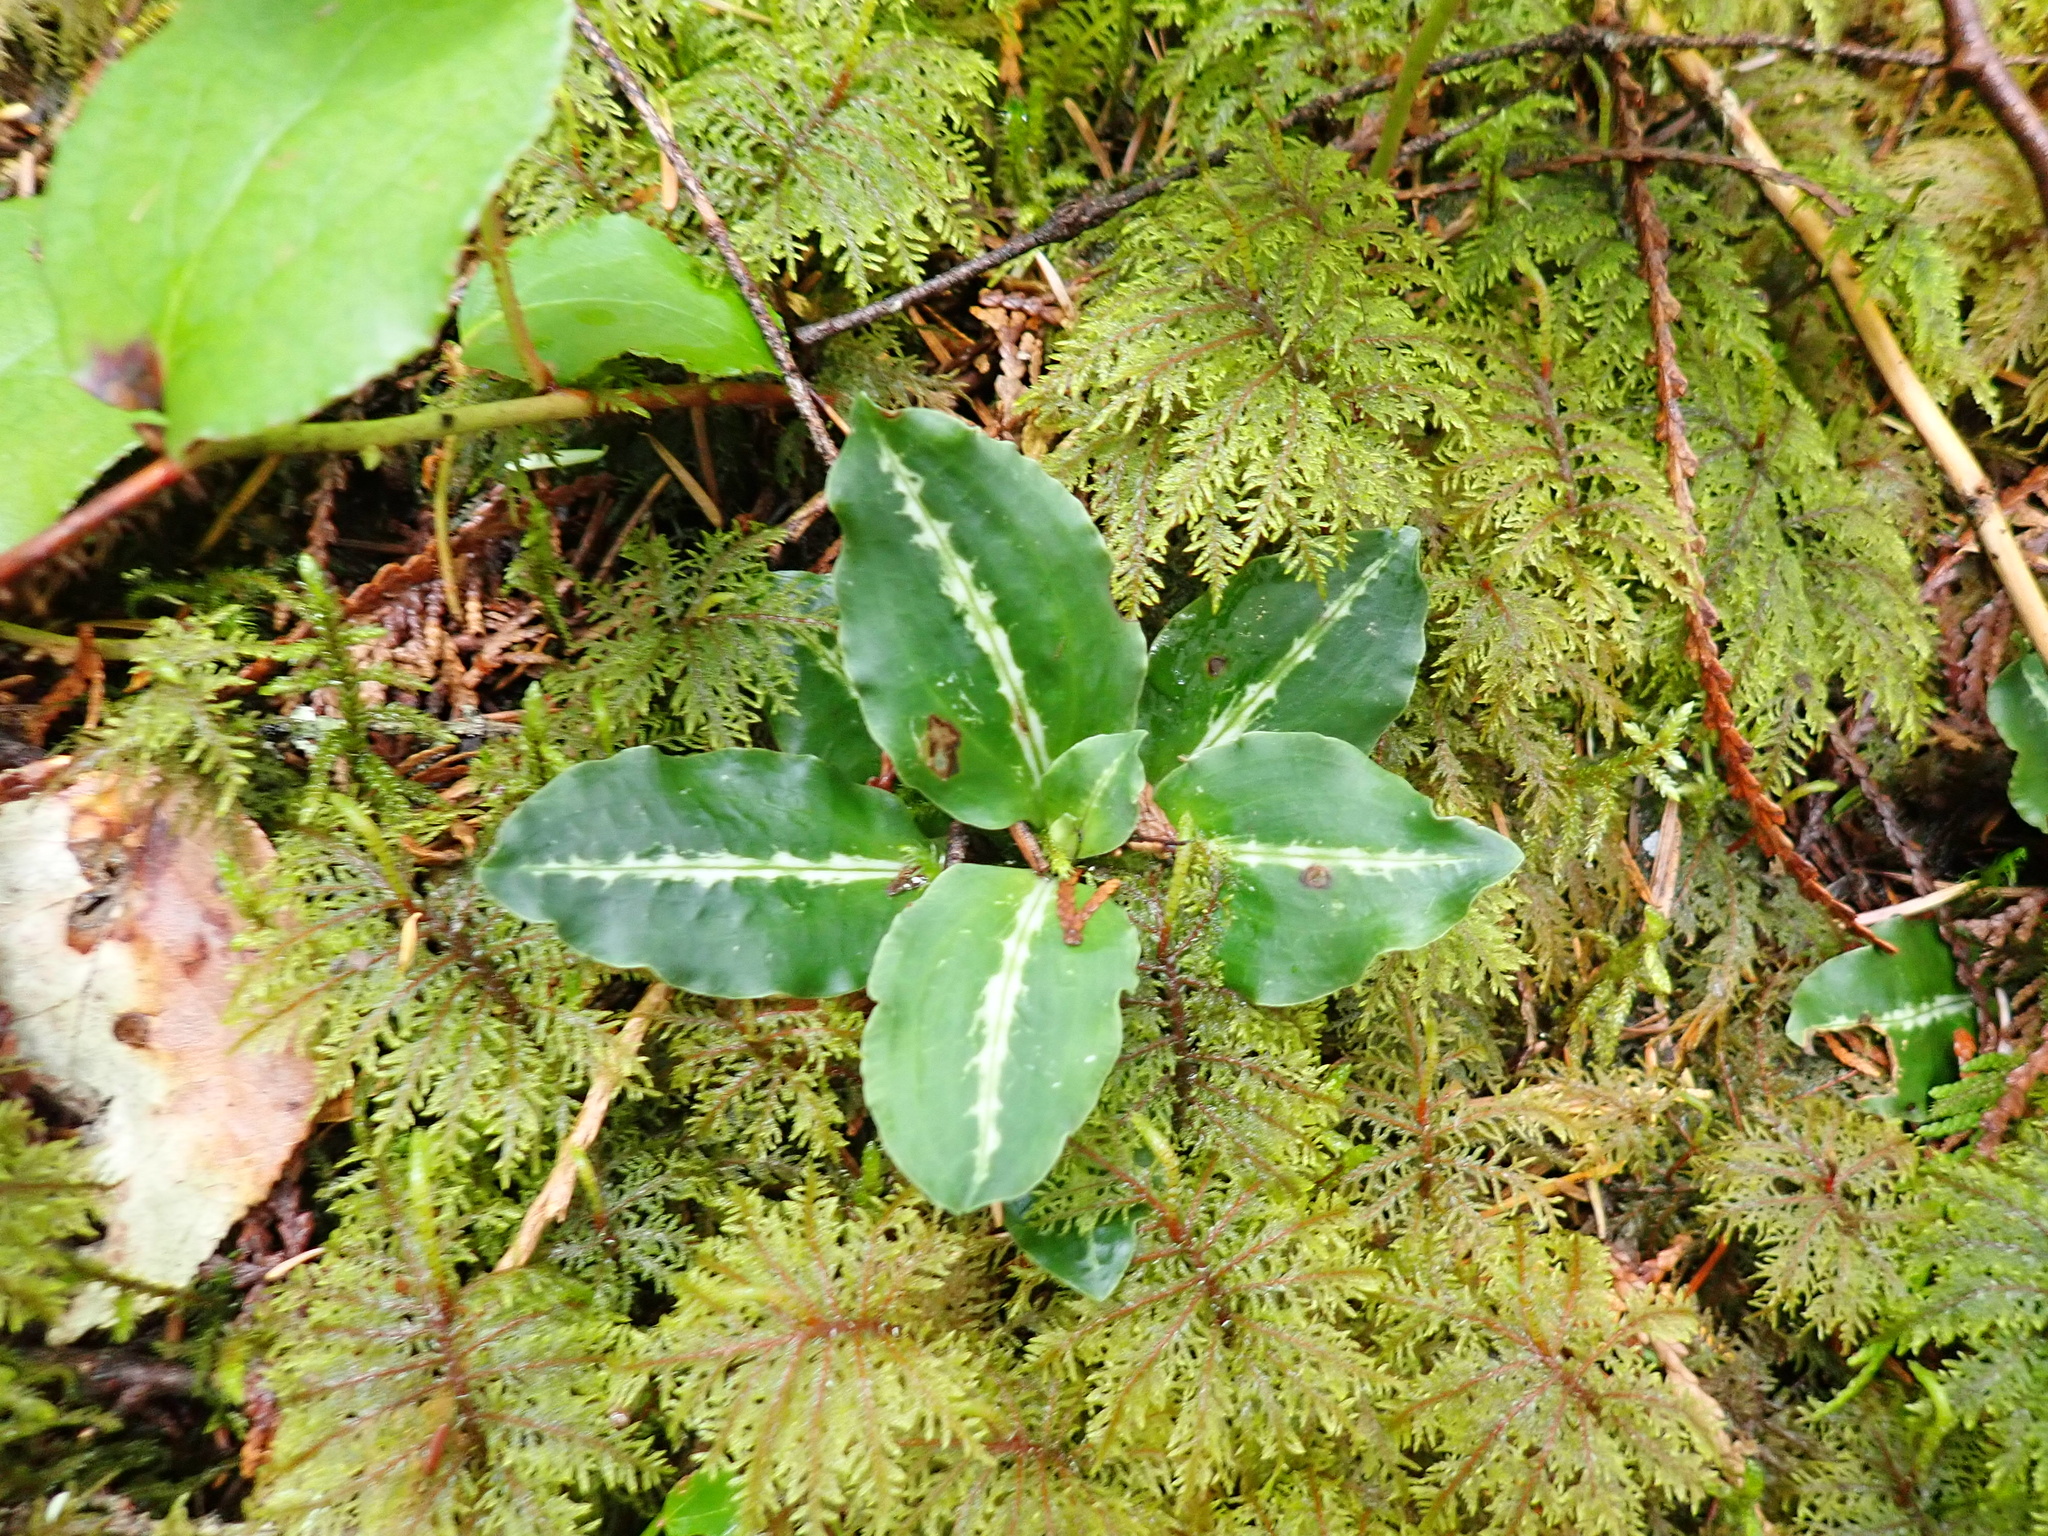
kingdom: Plantae
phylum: Tracheophyta
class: Liliopsida
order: Asparagales
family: Orchidaceae
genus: Goodyera
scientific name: Goodyera oblongifolia
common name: Giant rattlesnake-plantain
